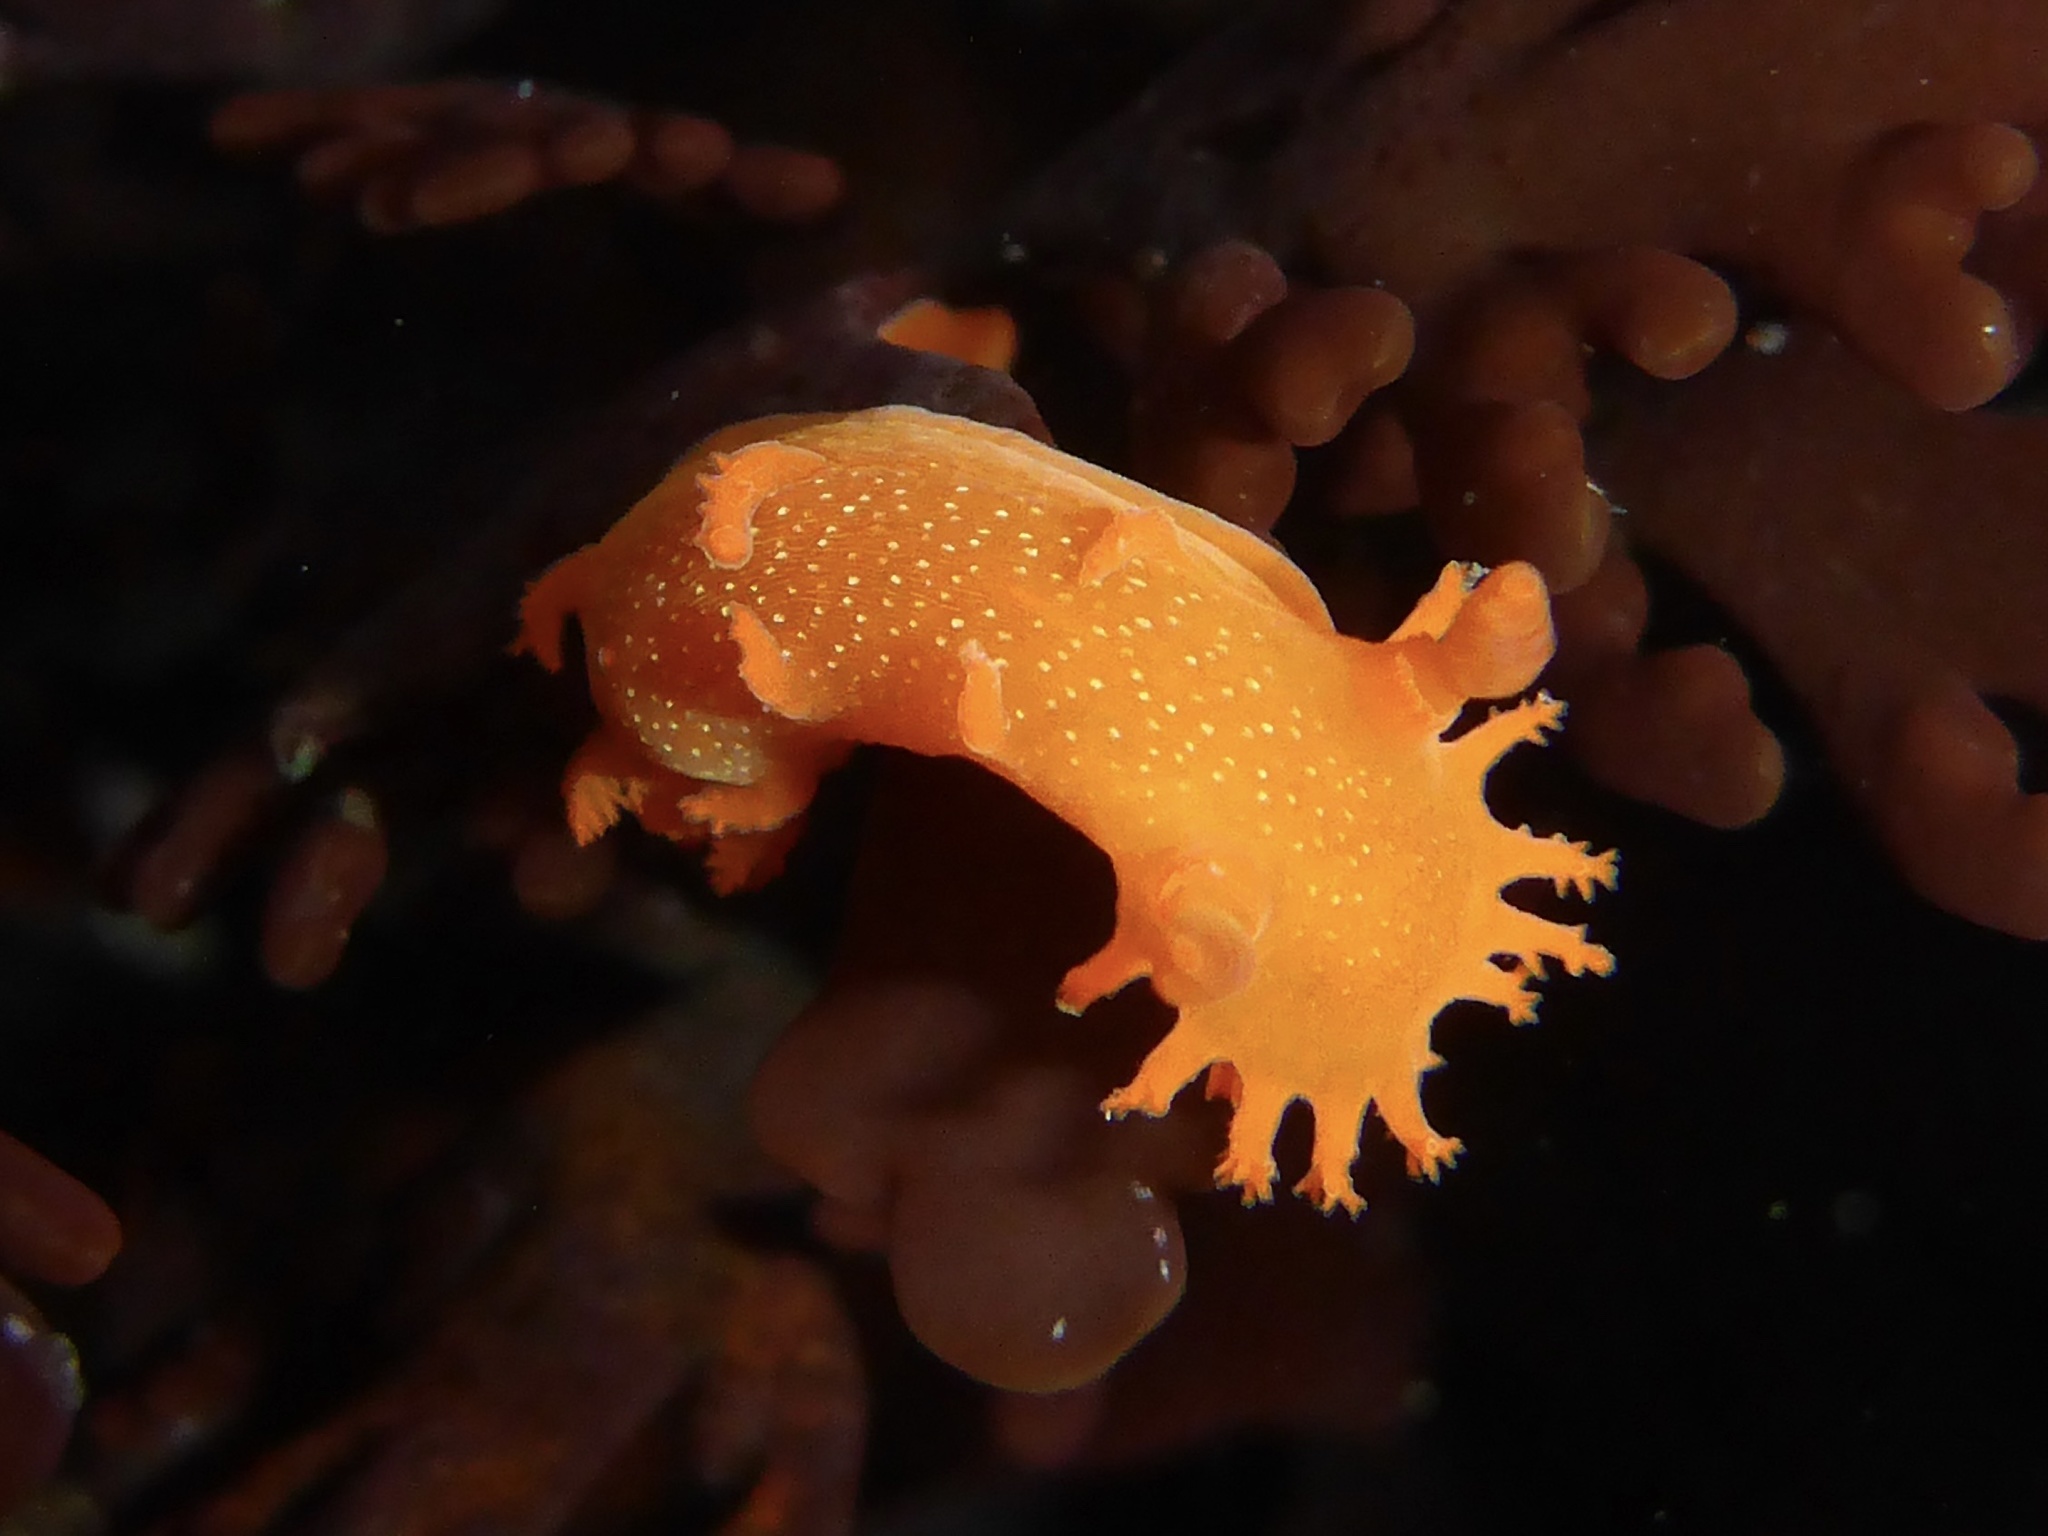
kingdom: Animalia
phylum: Mollusca
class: Gastropoda
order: Nudibranchia
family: Polyceridae
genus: Triopha
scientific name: Triopha maculata
